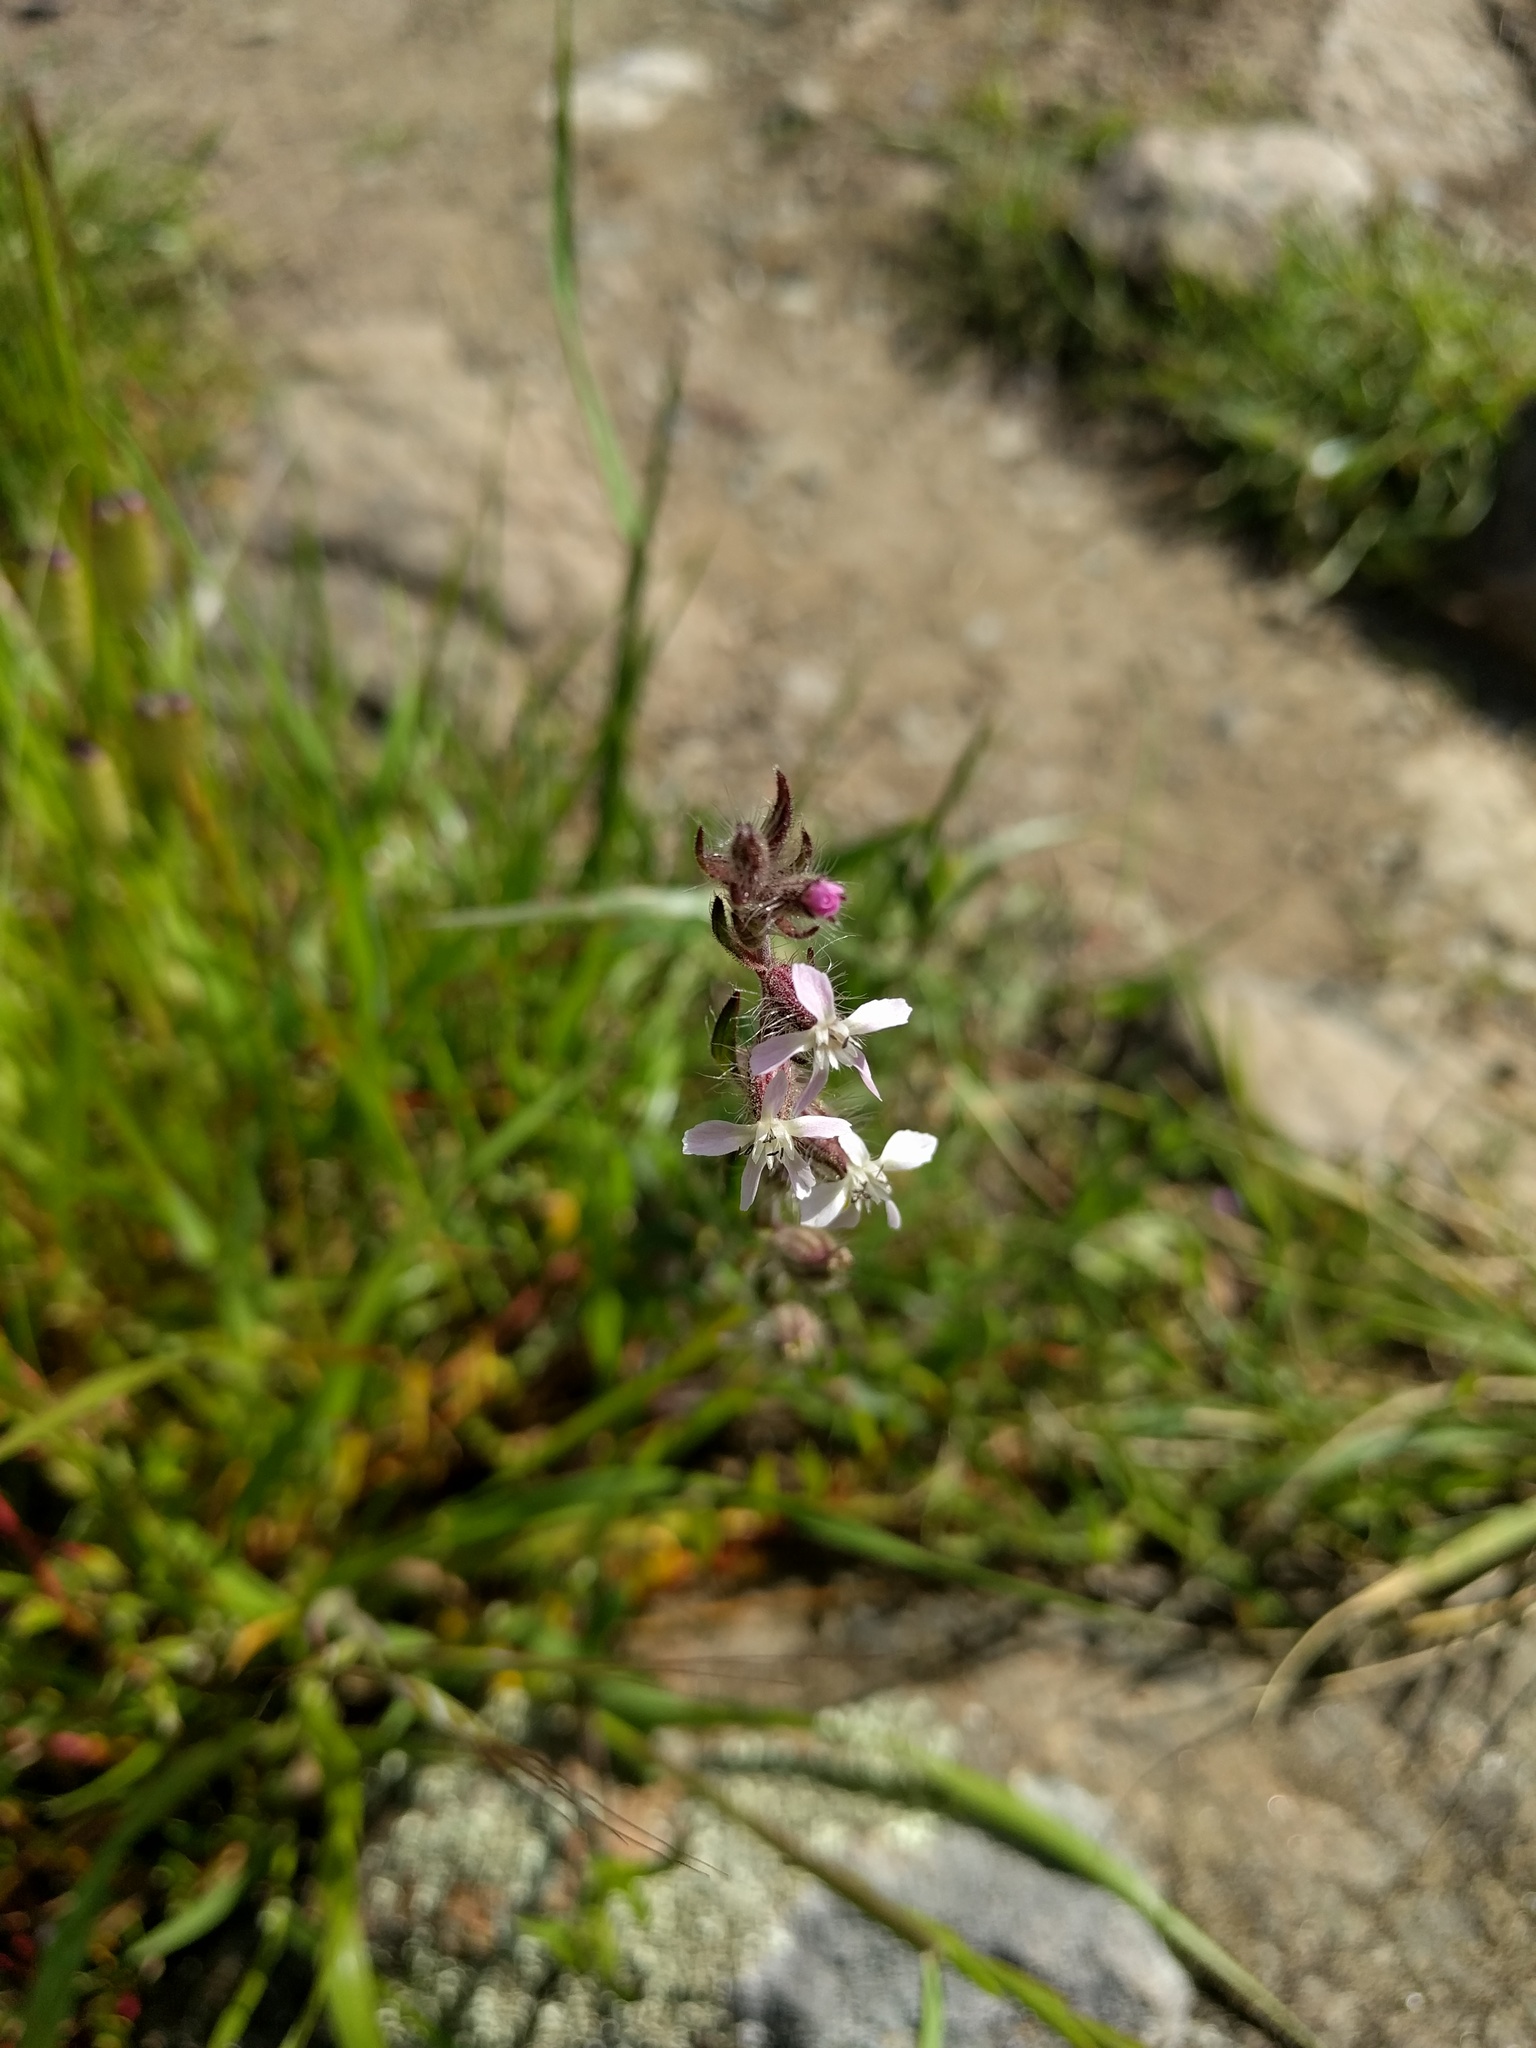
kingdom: Plantae
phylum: Tracheophyta
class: Magnoliopsida
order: Caryophyllales
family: Caryophyllaceae
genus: Silene
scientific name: Silene gallica
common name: Small-flowered catchfly
